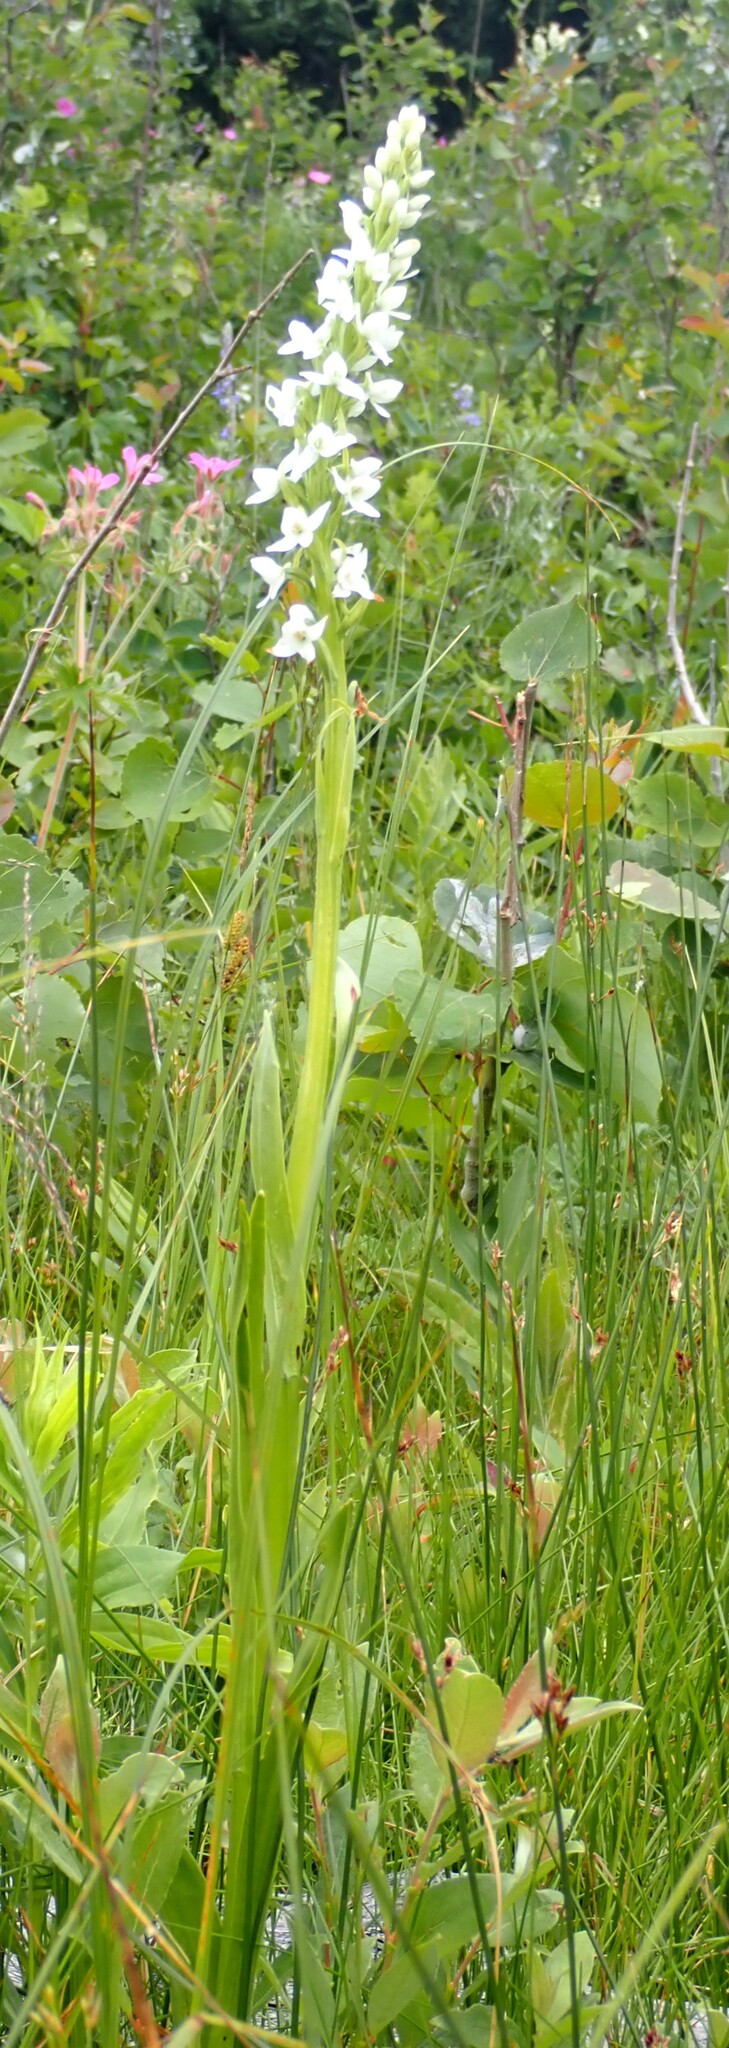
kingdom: Plantae
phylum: Tracheophyta
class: Liliopsida
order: Asparagales
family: Orchidaceae
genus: Platanthera
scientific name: Platanthera dilatata
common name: Bog candles
